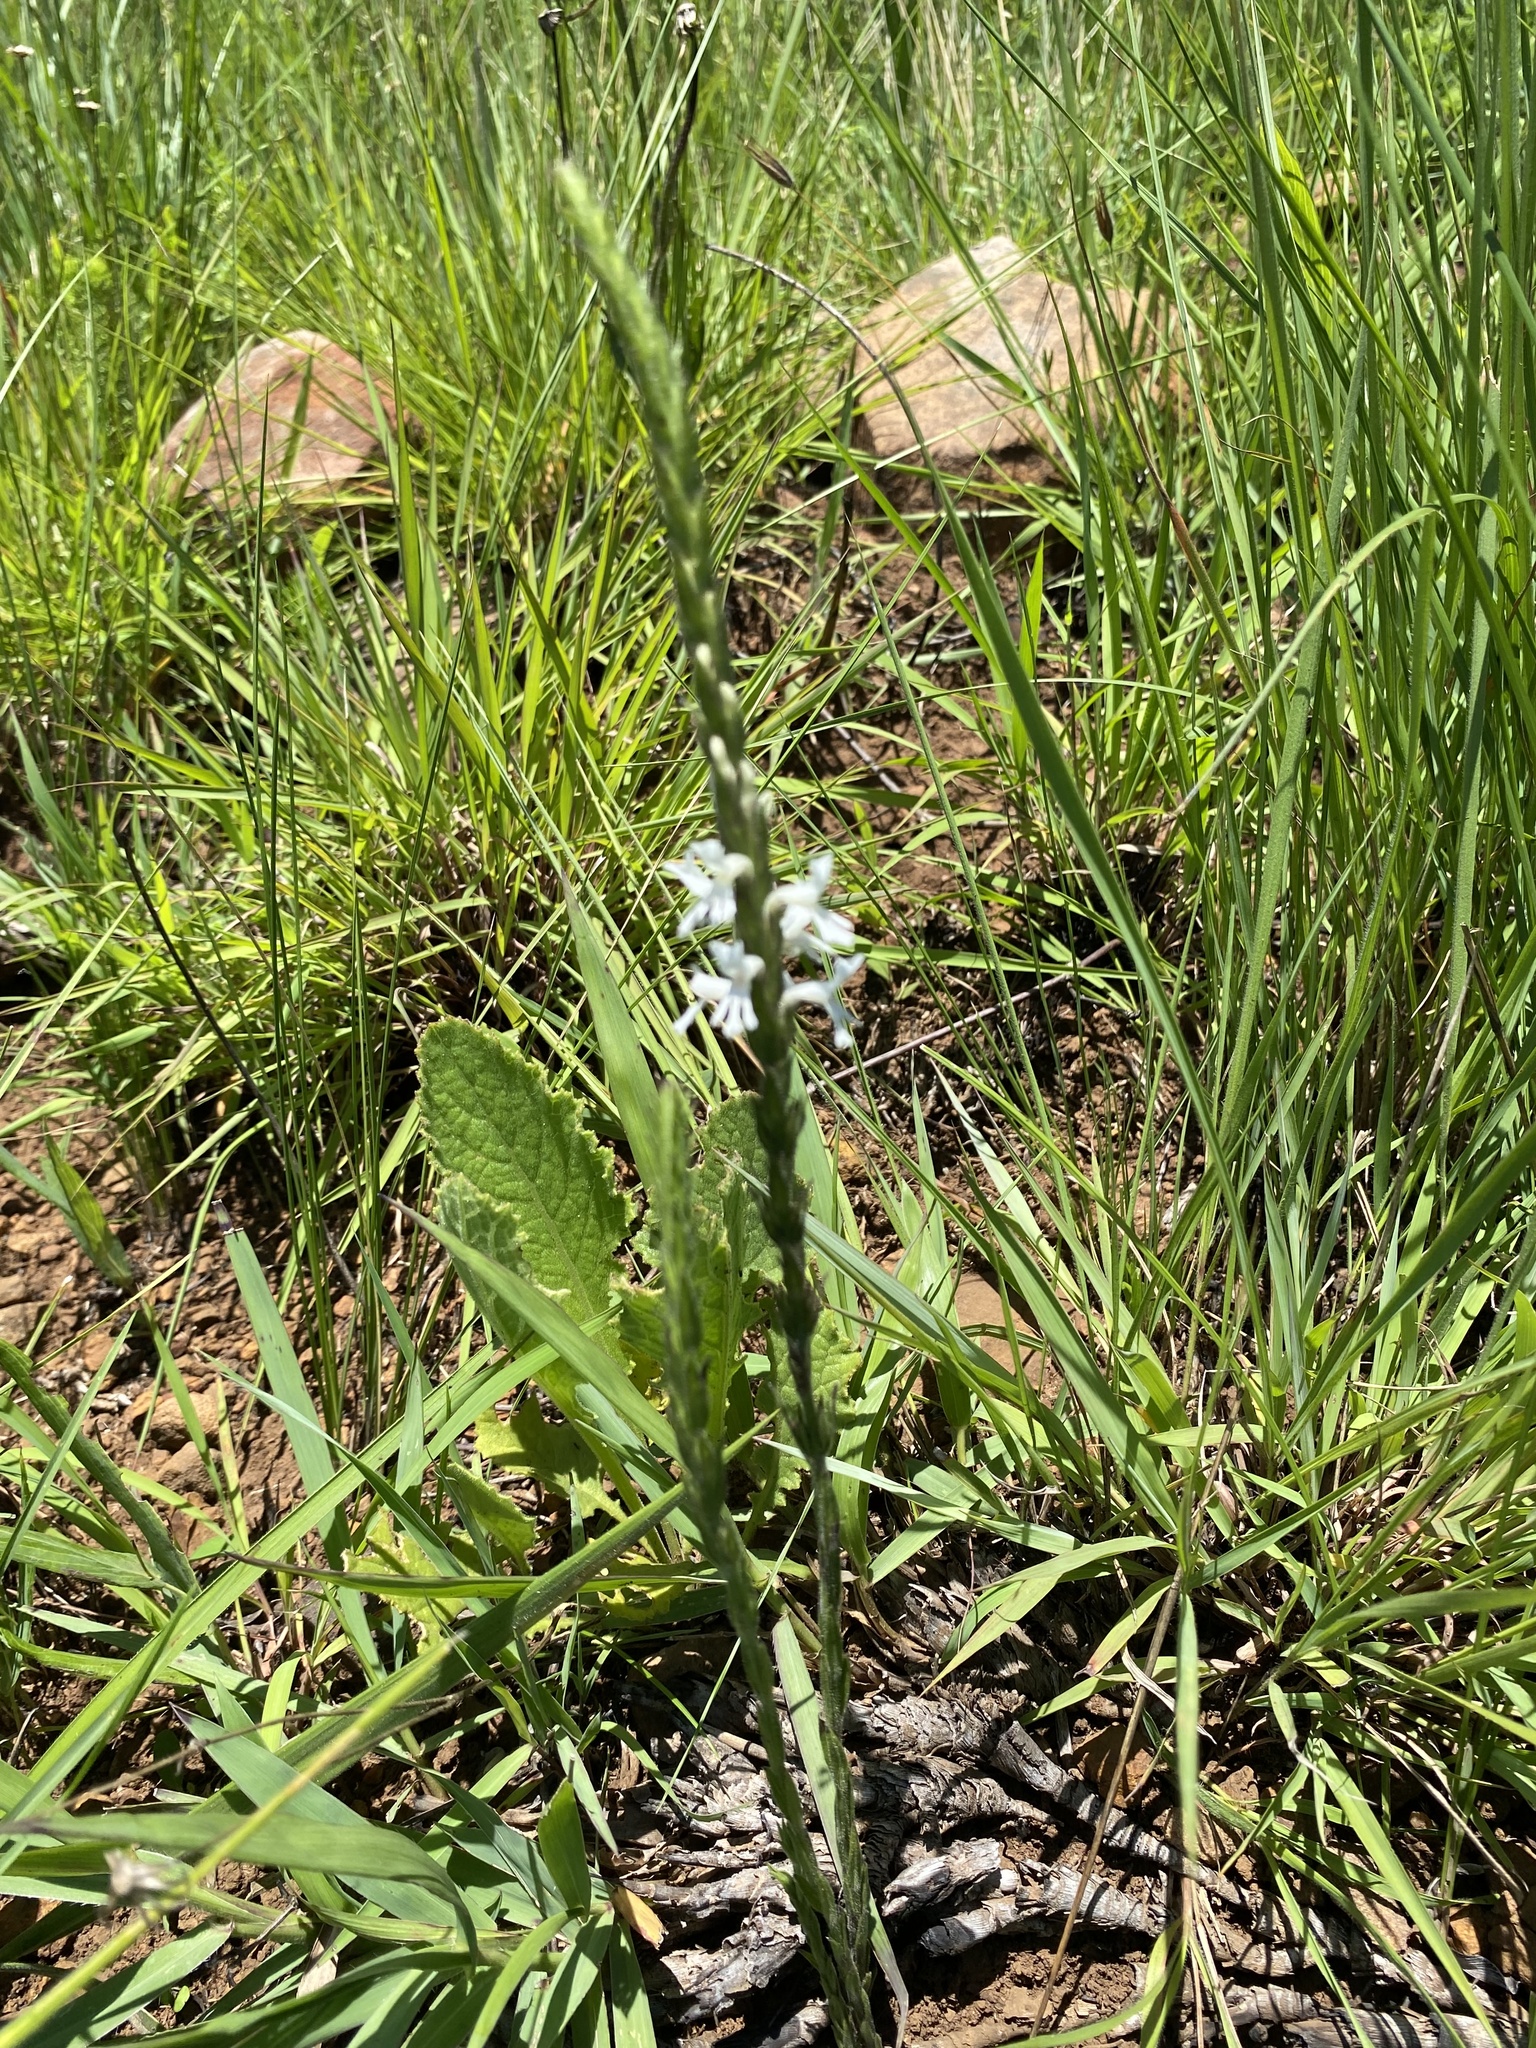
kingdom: Plantae
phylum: Tracheophyta
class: Magnoliopsida
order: Lamiales
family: Orobanchaceae
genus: Striga
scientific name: Striga bilabiata
